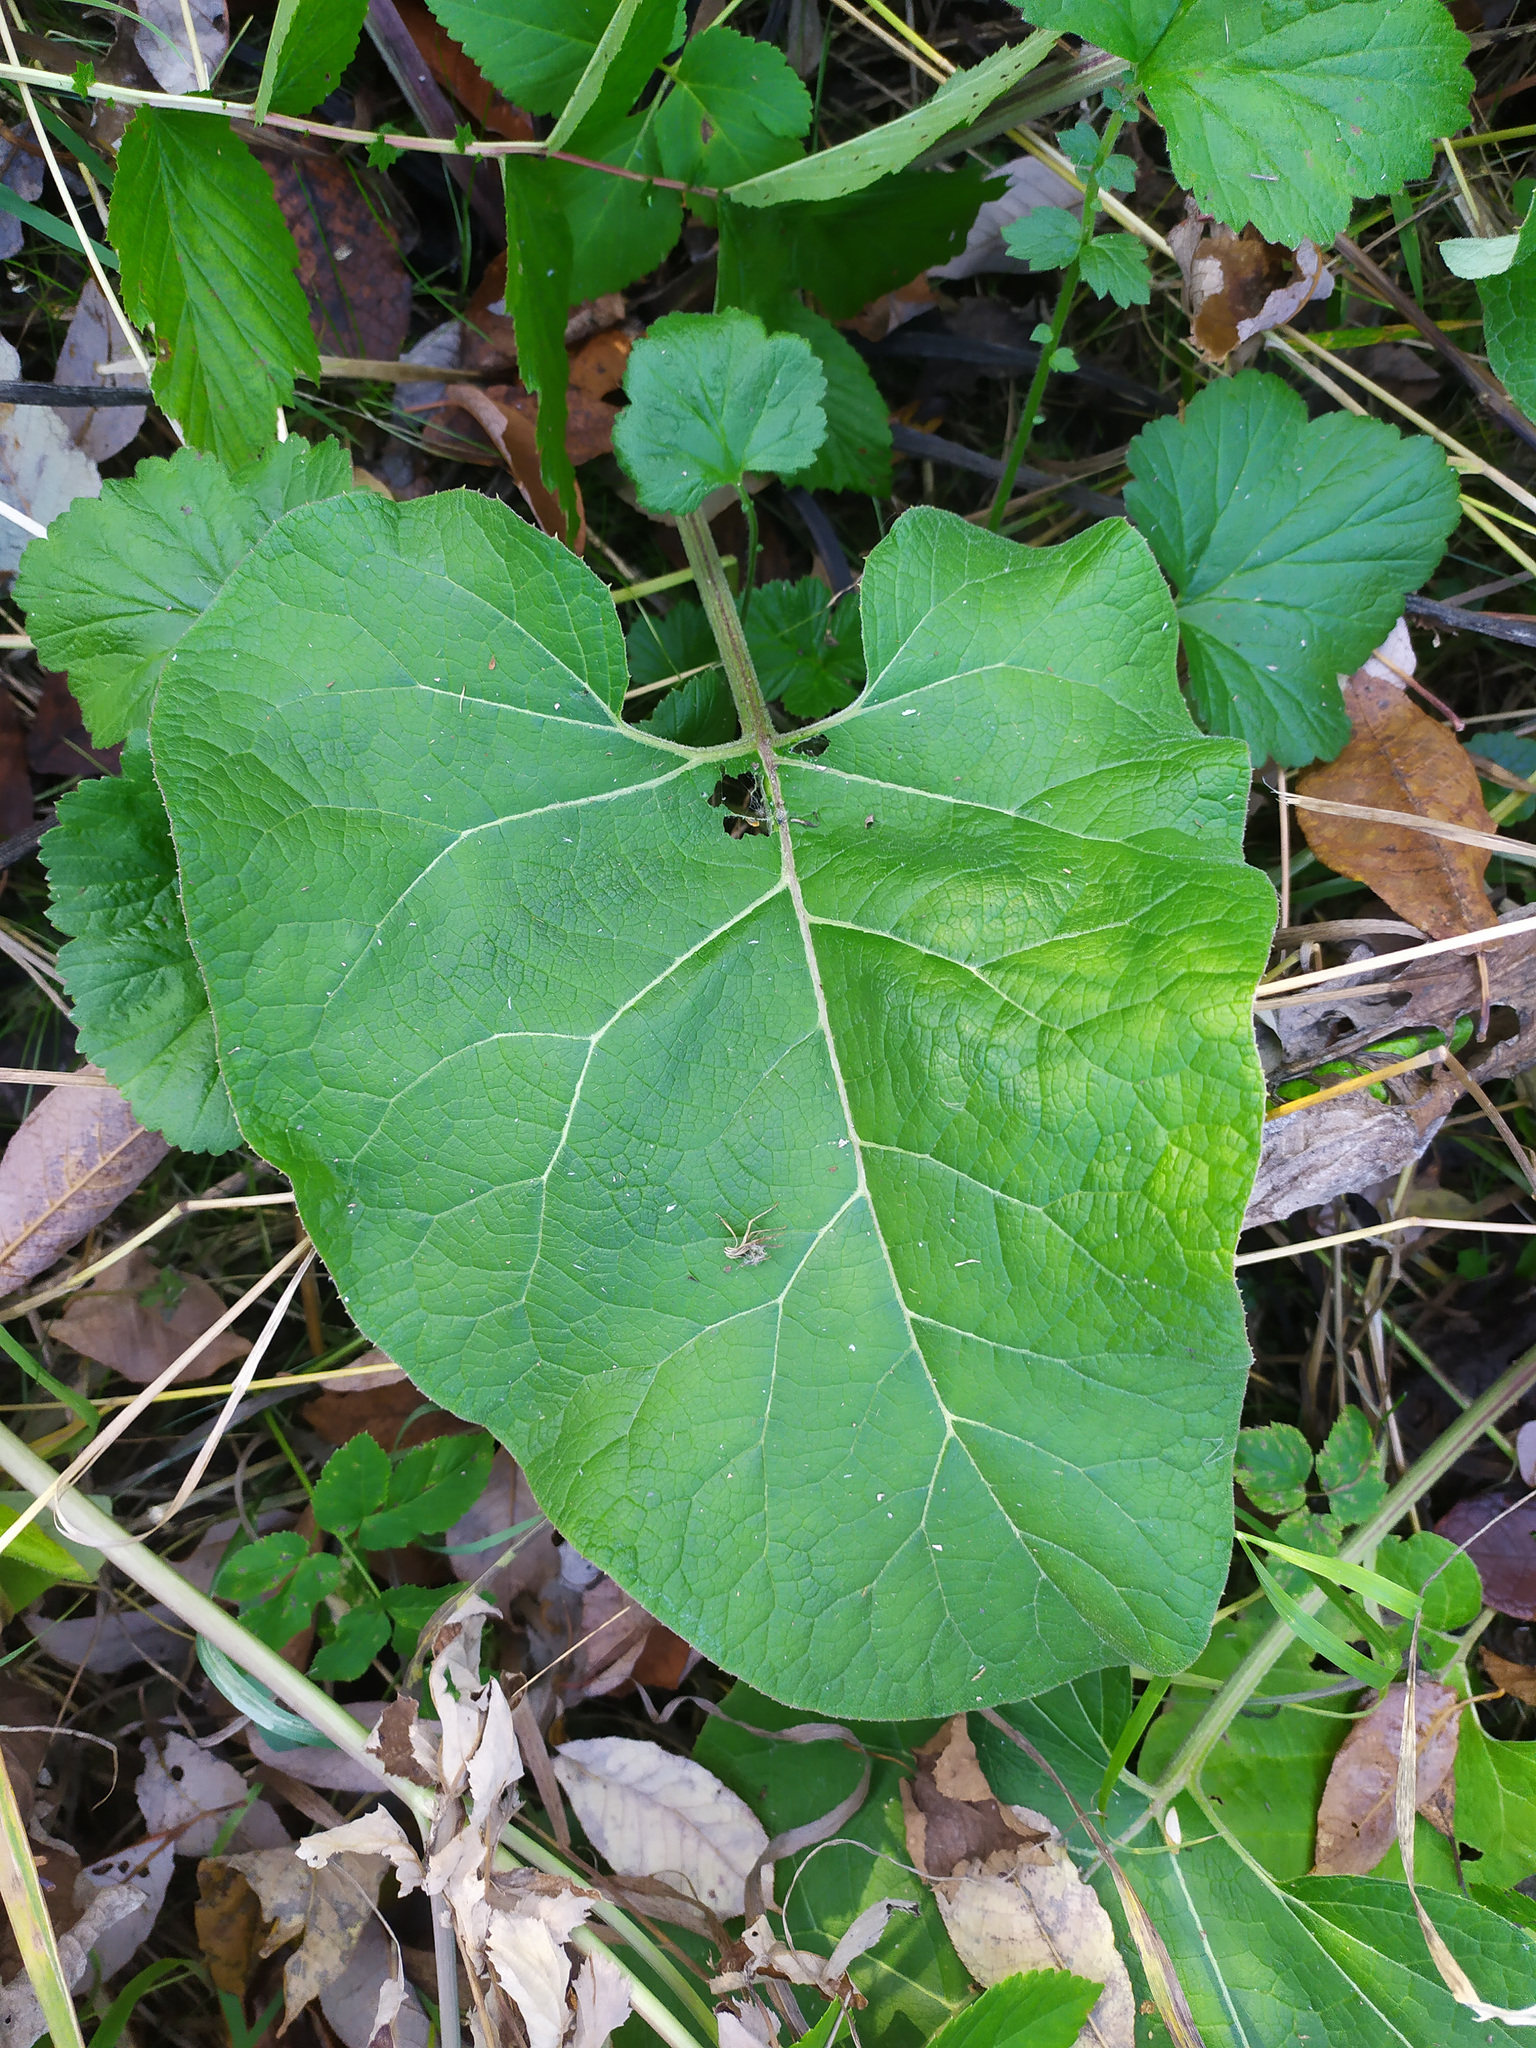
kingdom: Plantae
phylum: Tracheophyta
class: Magnoliopsida
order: Asterales
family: Asteraceae
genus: Arctium
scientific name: Arctium
